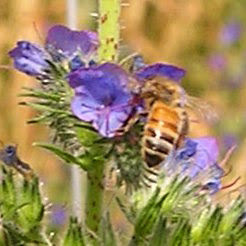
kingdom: Animalia
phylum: Arthropoda
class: Insecta
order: Hymenoptera
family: Apidae
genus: Apis
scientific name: Apis mellifera
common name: Honey bee
